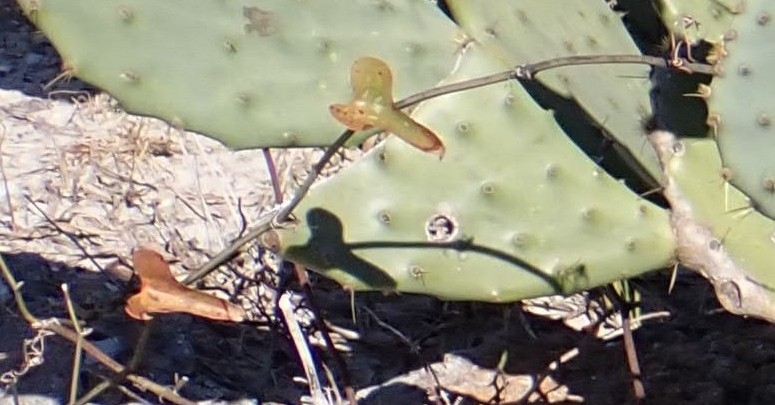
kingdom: Plantae
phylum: Tracheophyta
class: Liliopsida
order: Liliales
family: Smilacaceae
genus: Smilax
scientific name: Smilax bona-nox
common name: Catbrier
